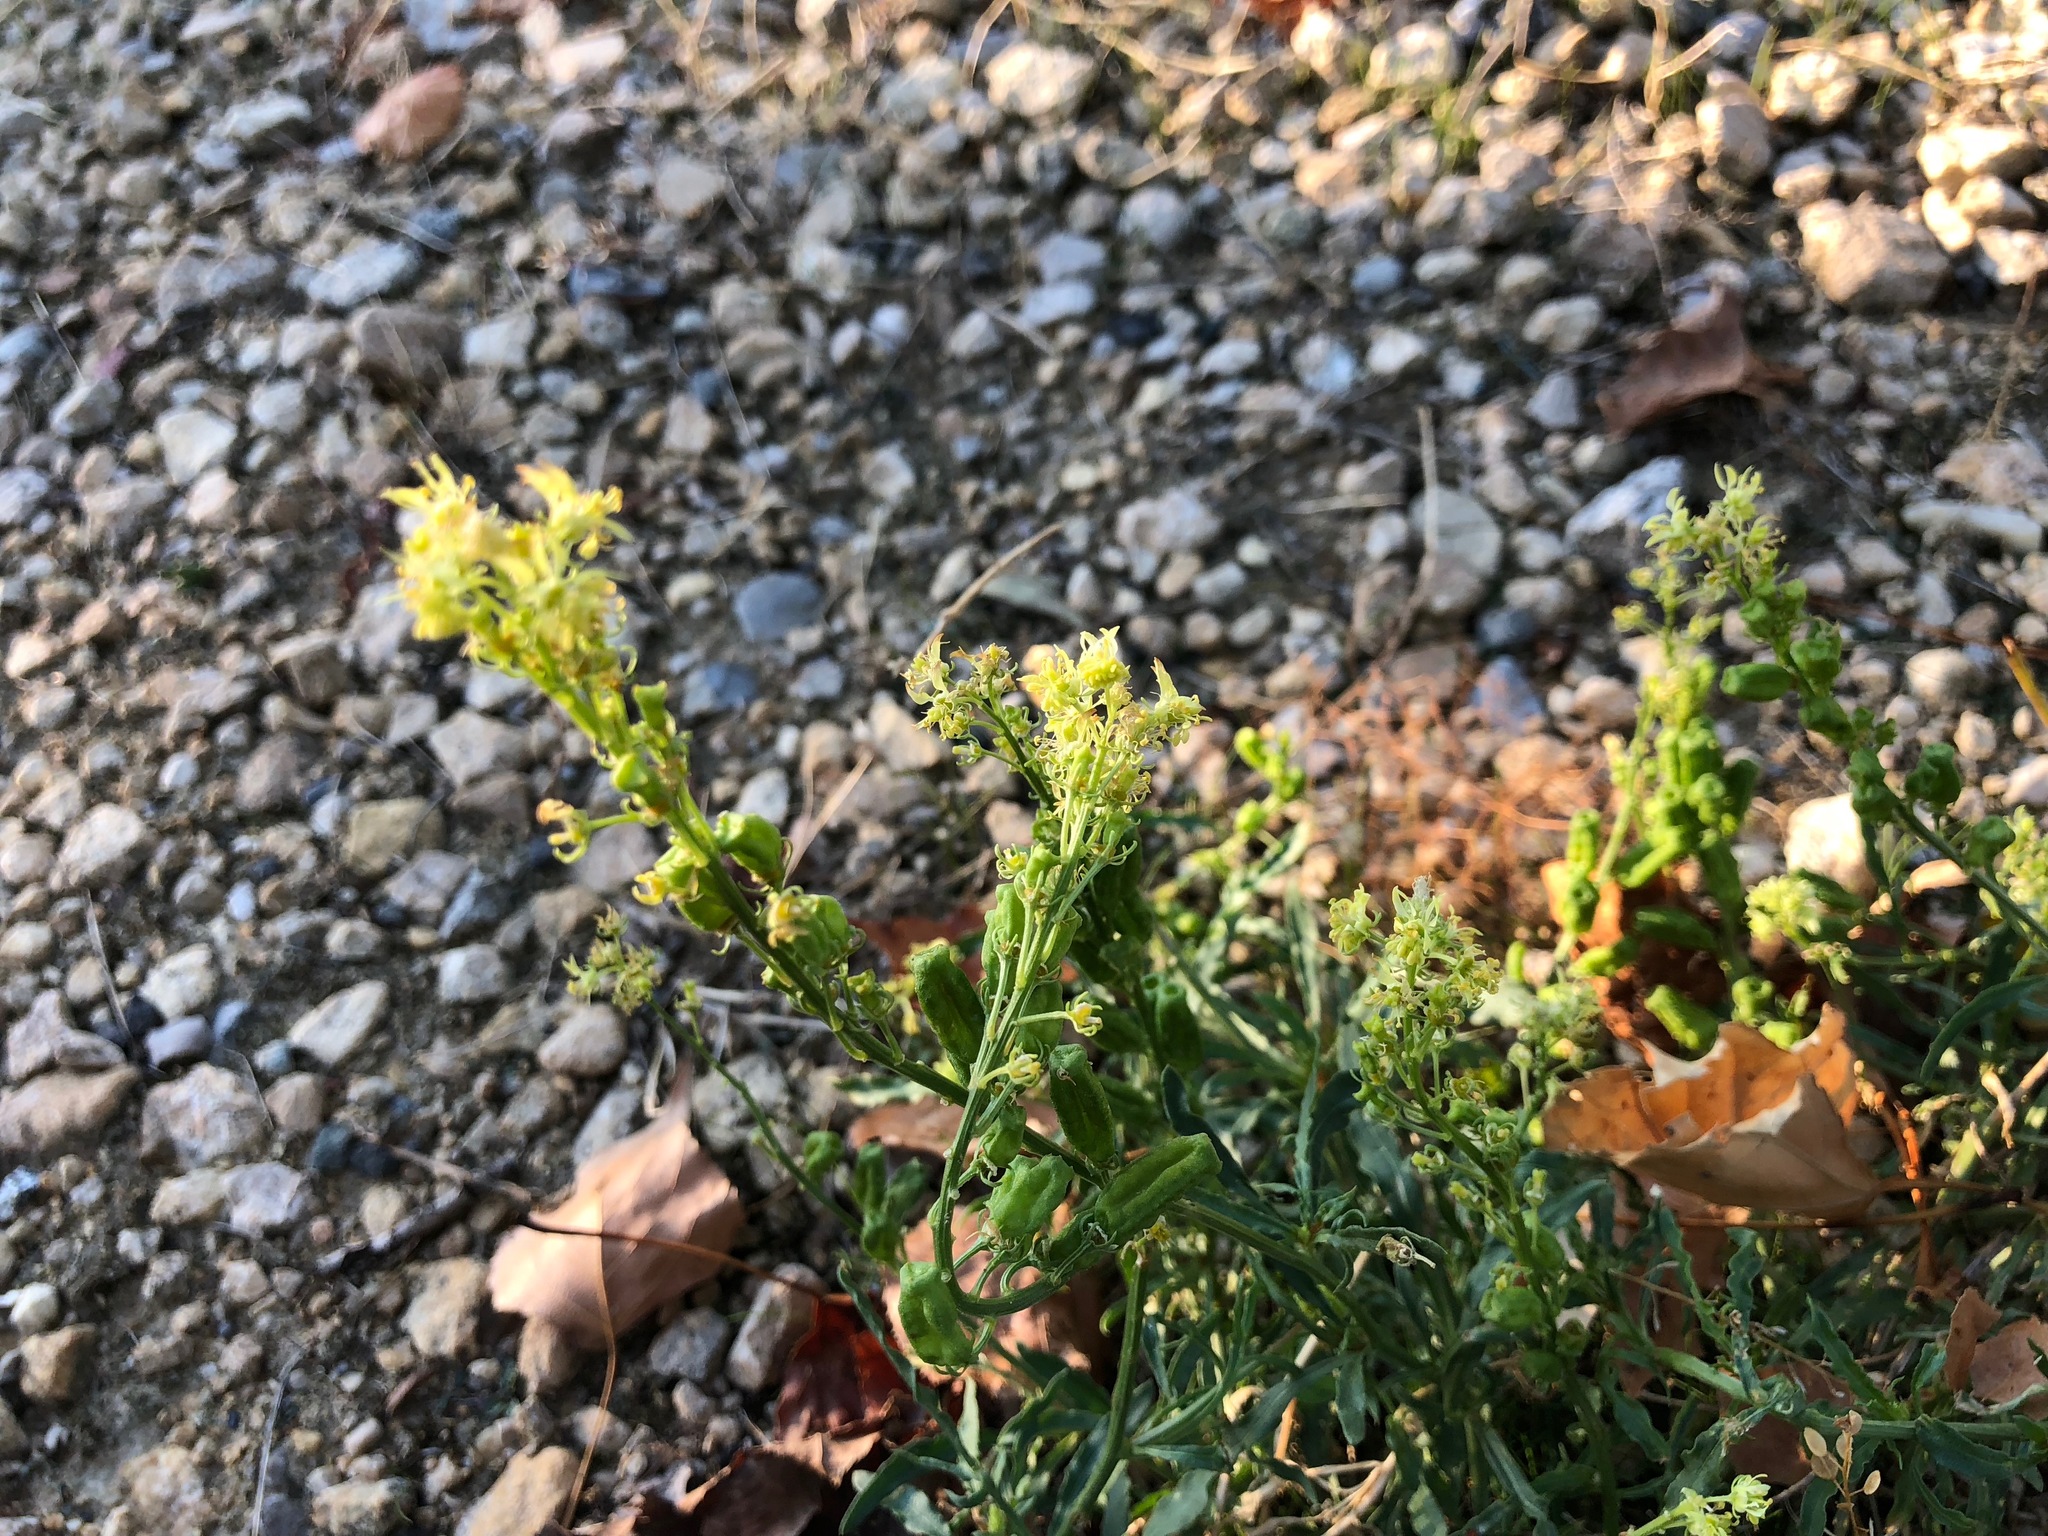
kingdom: Plantae
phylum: Tracheophyta
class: Magnoliopsida
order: Brassicales
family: Resedaceae
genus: Reseda
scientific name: Reseda lutea
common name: Wild mignonette
